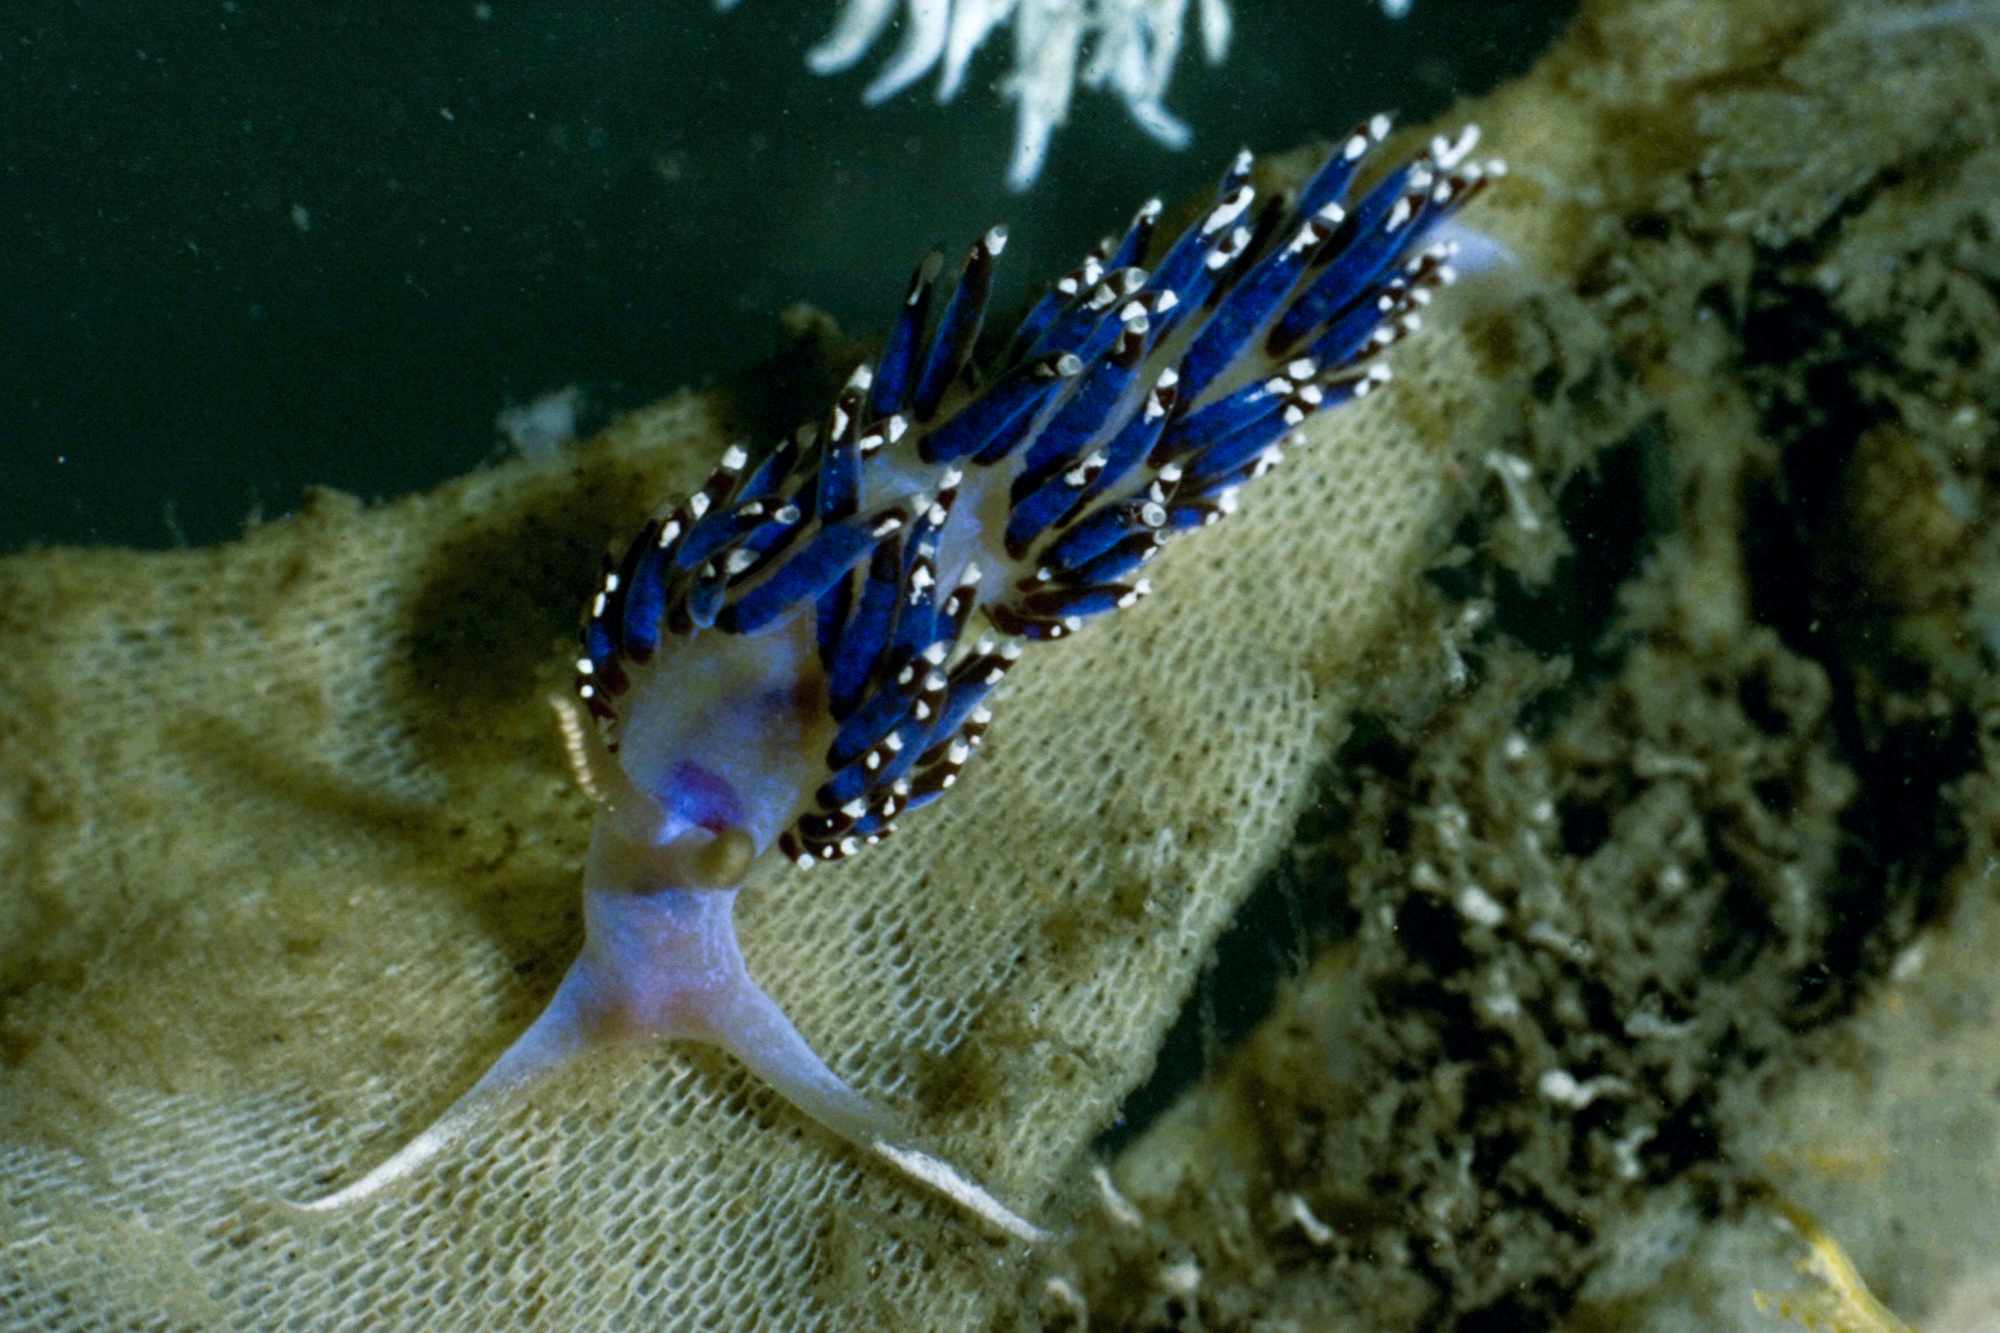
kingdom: Animalia
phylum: Mollusca
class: Gastropoda
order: Nudibranchia
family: Facelinidae
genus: Facelina
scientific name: Facelina auriculata
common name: Slender facelina
